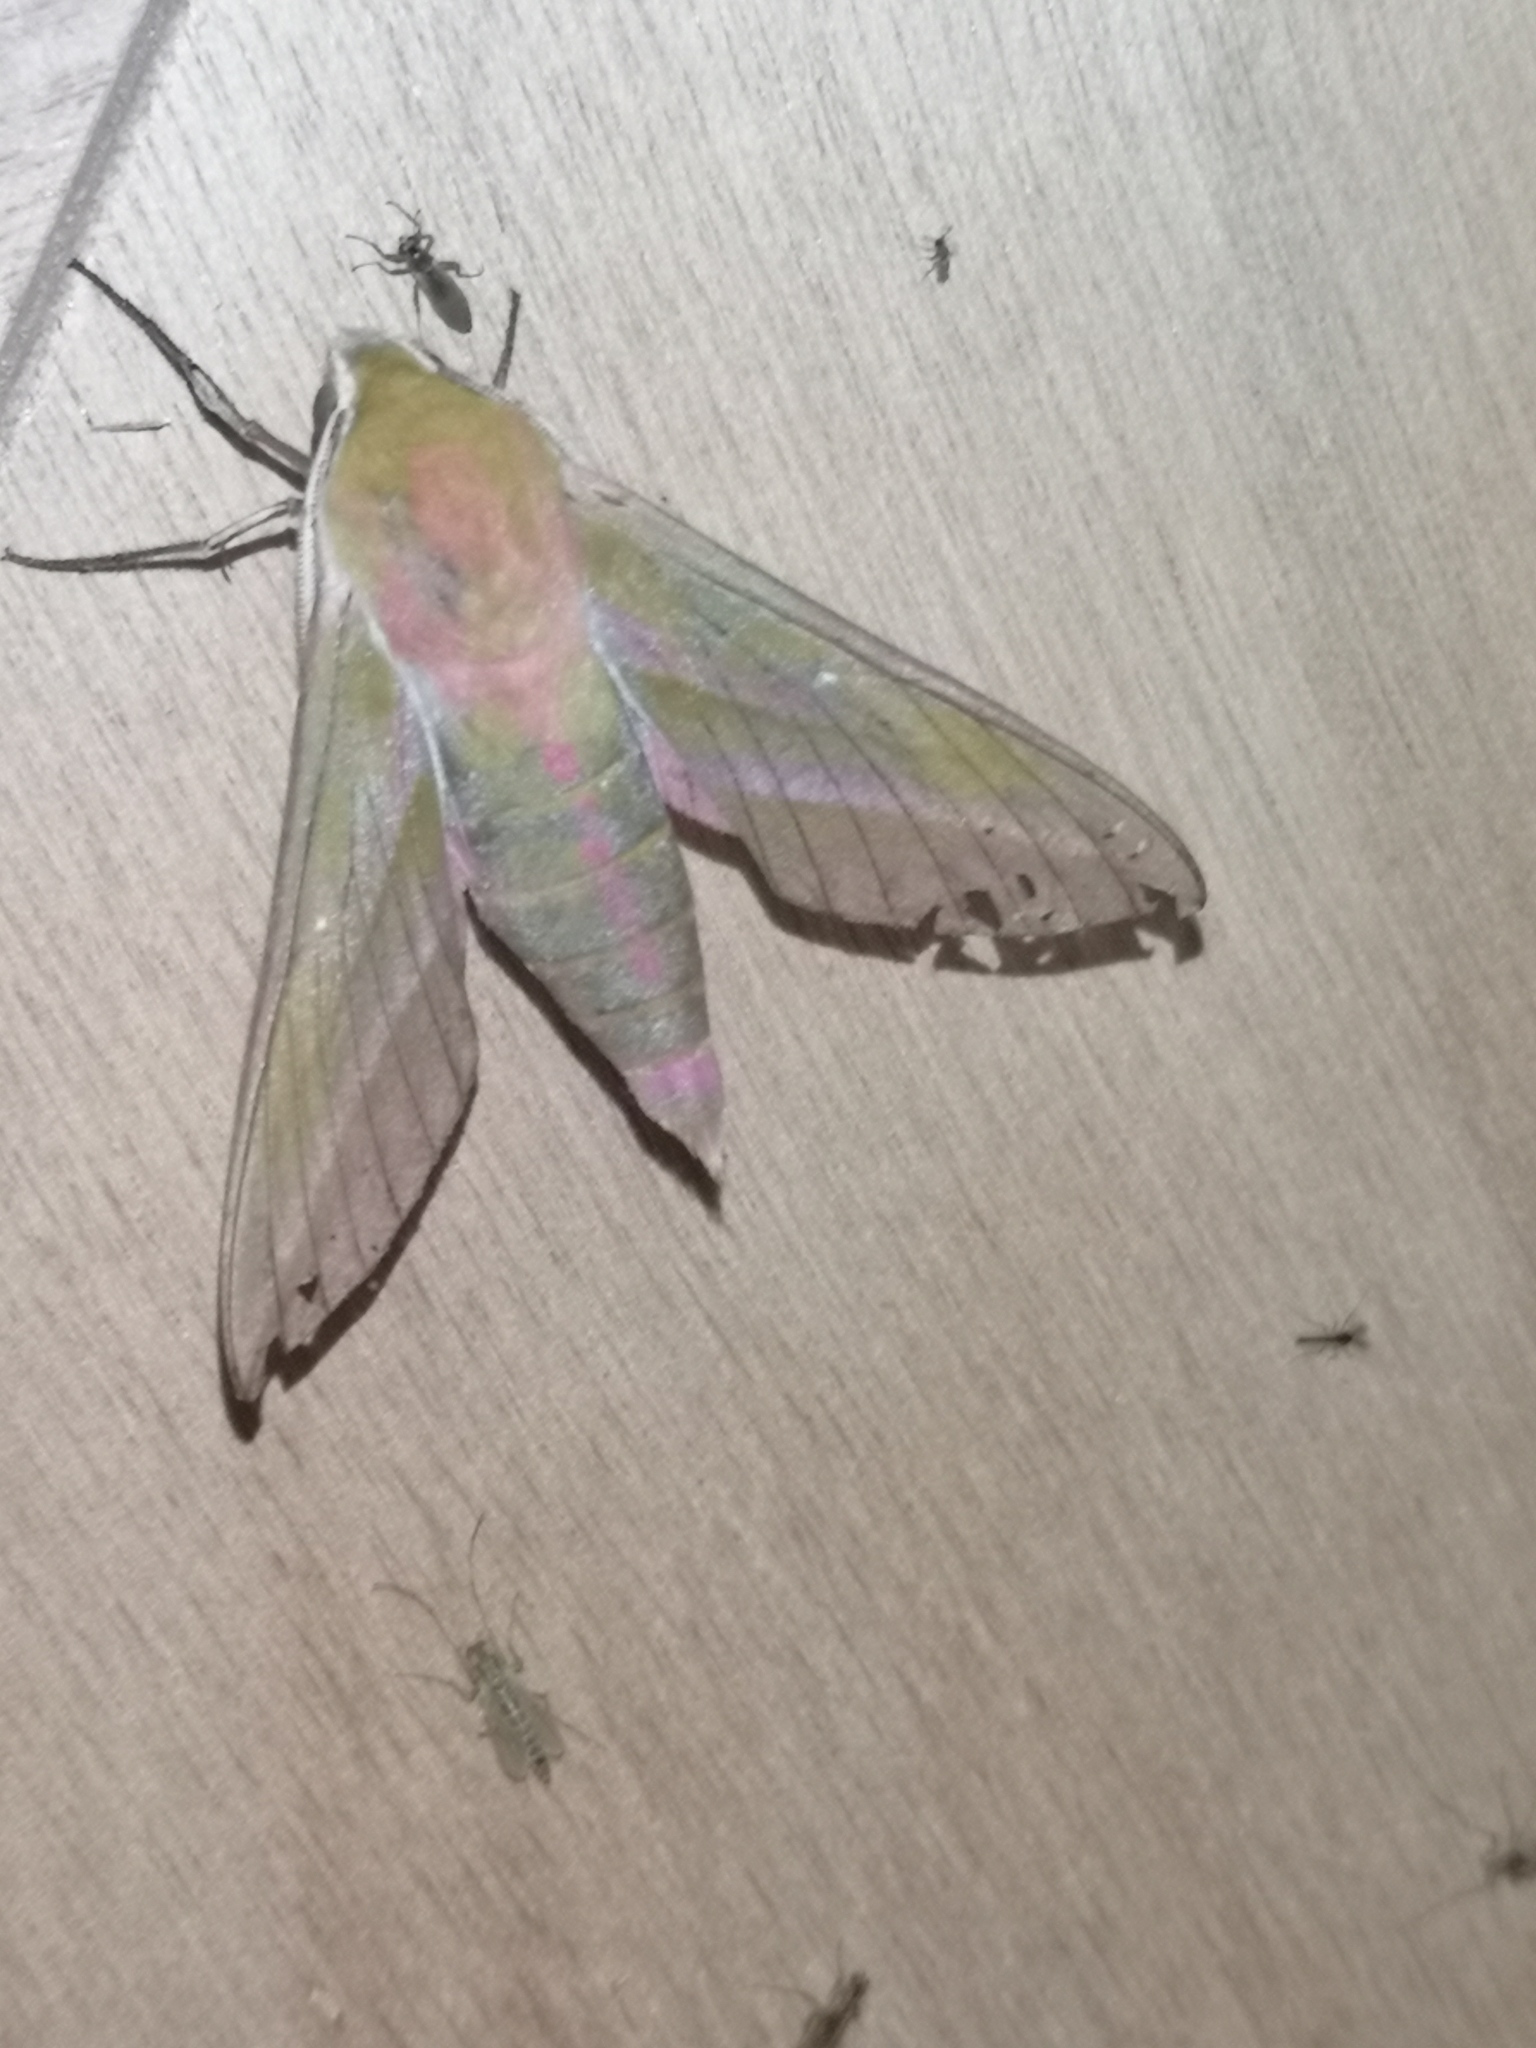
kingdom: Animalia
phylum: Arthropoda
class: Insecta
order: Lepidoptera
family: Sphingidae
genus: Deilephila
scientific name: Deilephila elpenor
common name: Elephant hawk-moth
